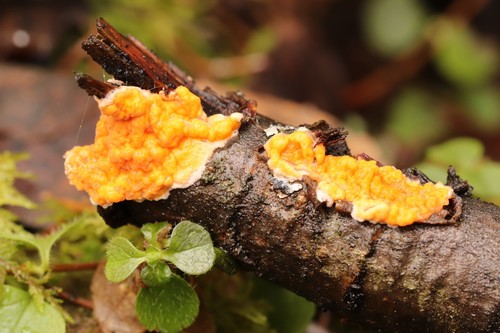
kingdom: Fungi
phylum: Basidiomycota
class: Agaricomycetes
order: Polyporales
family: Meruliaceae
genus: Phlebia
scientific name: Phlebia
